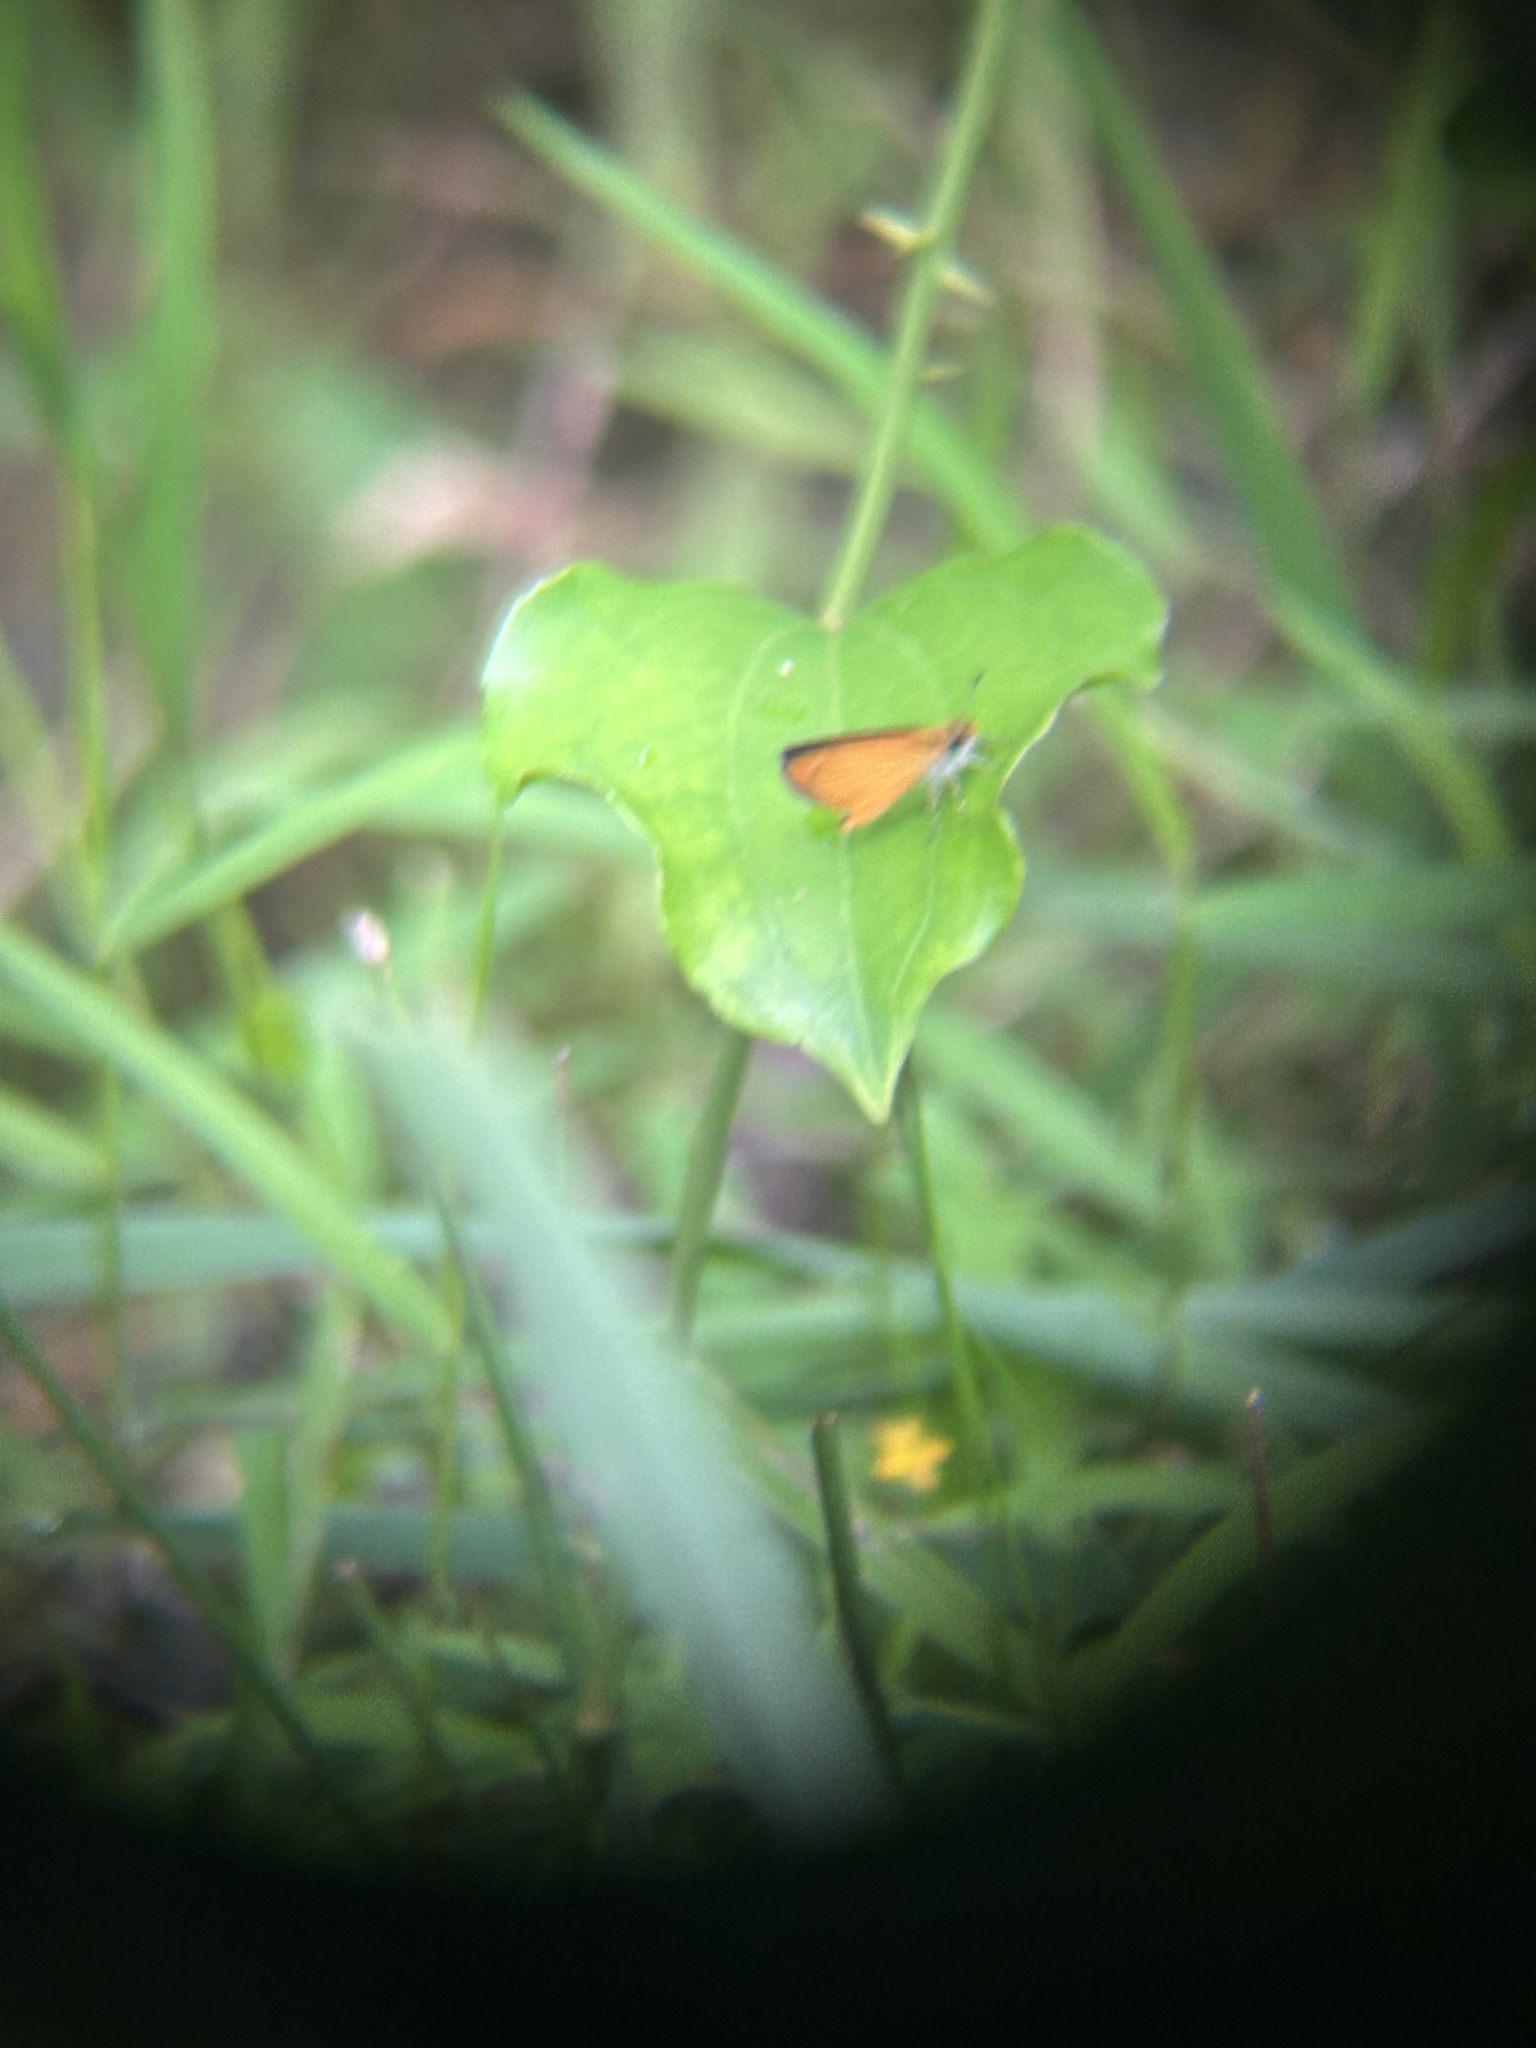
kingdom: Animalia
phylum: Arthropoda
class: Insecta
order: Lepidoptera
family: Hesperiidae
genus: Ancyloxypha
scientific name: Ancyloxypha numitor
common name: Least skipper
